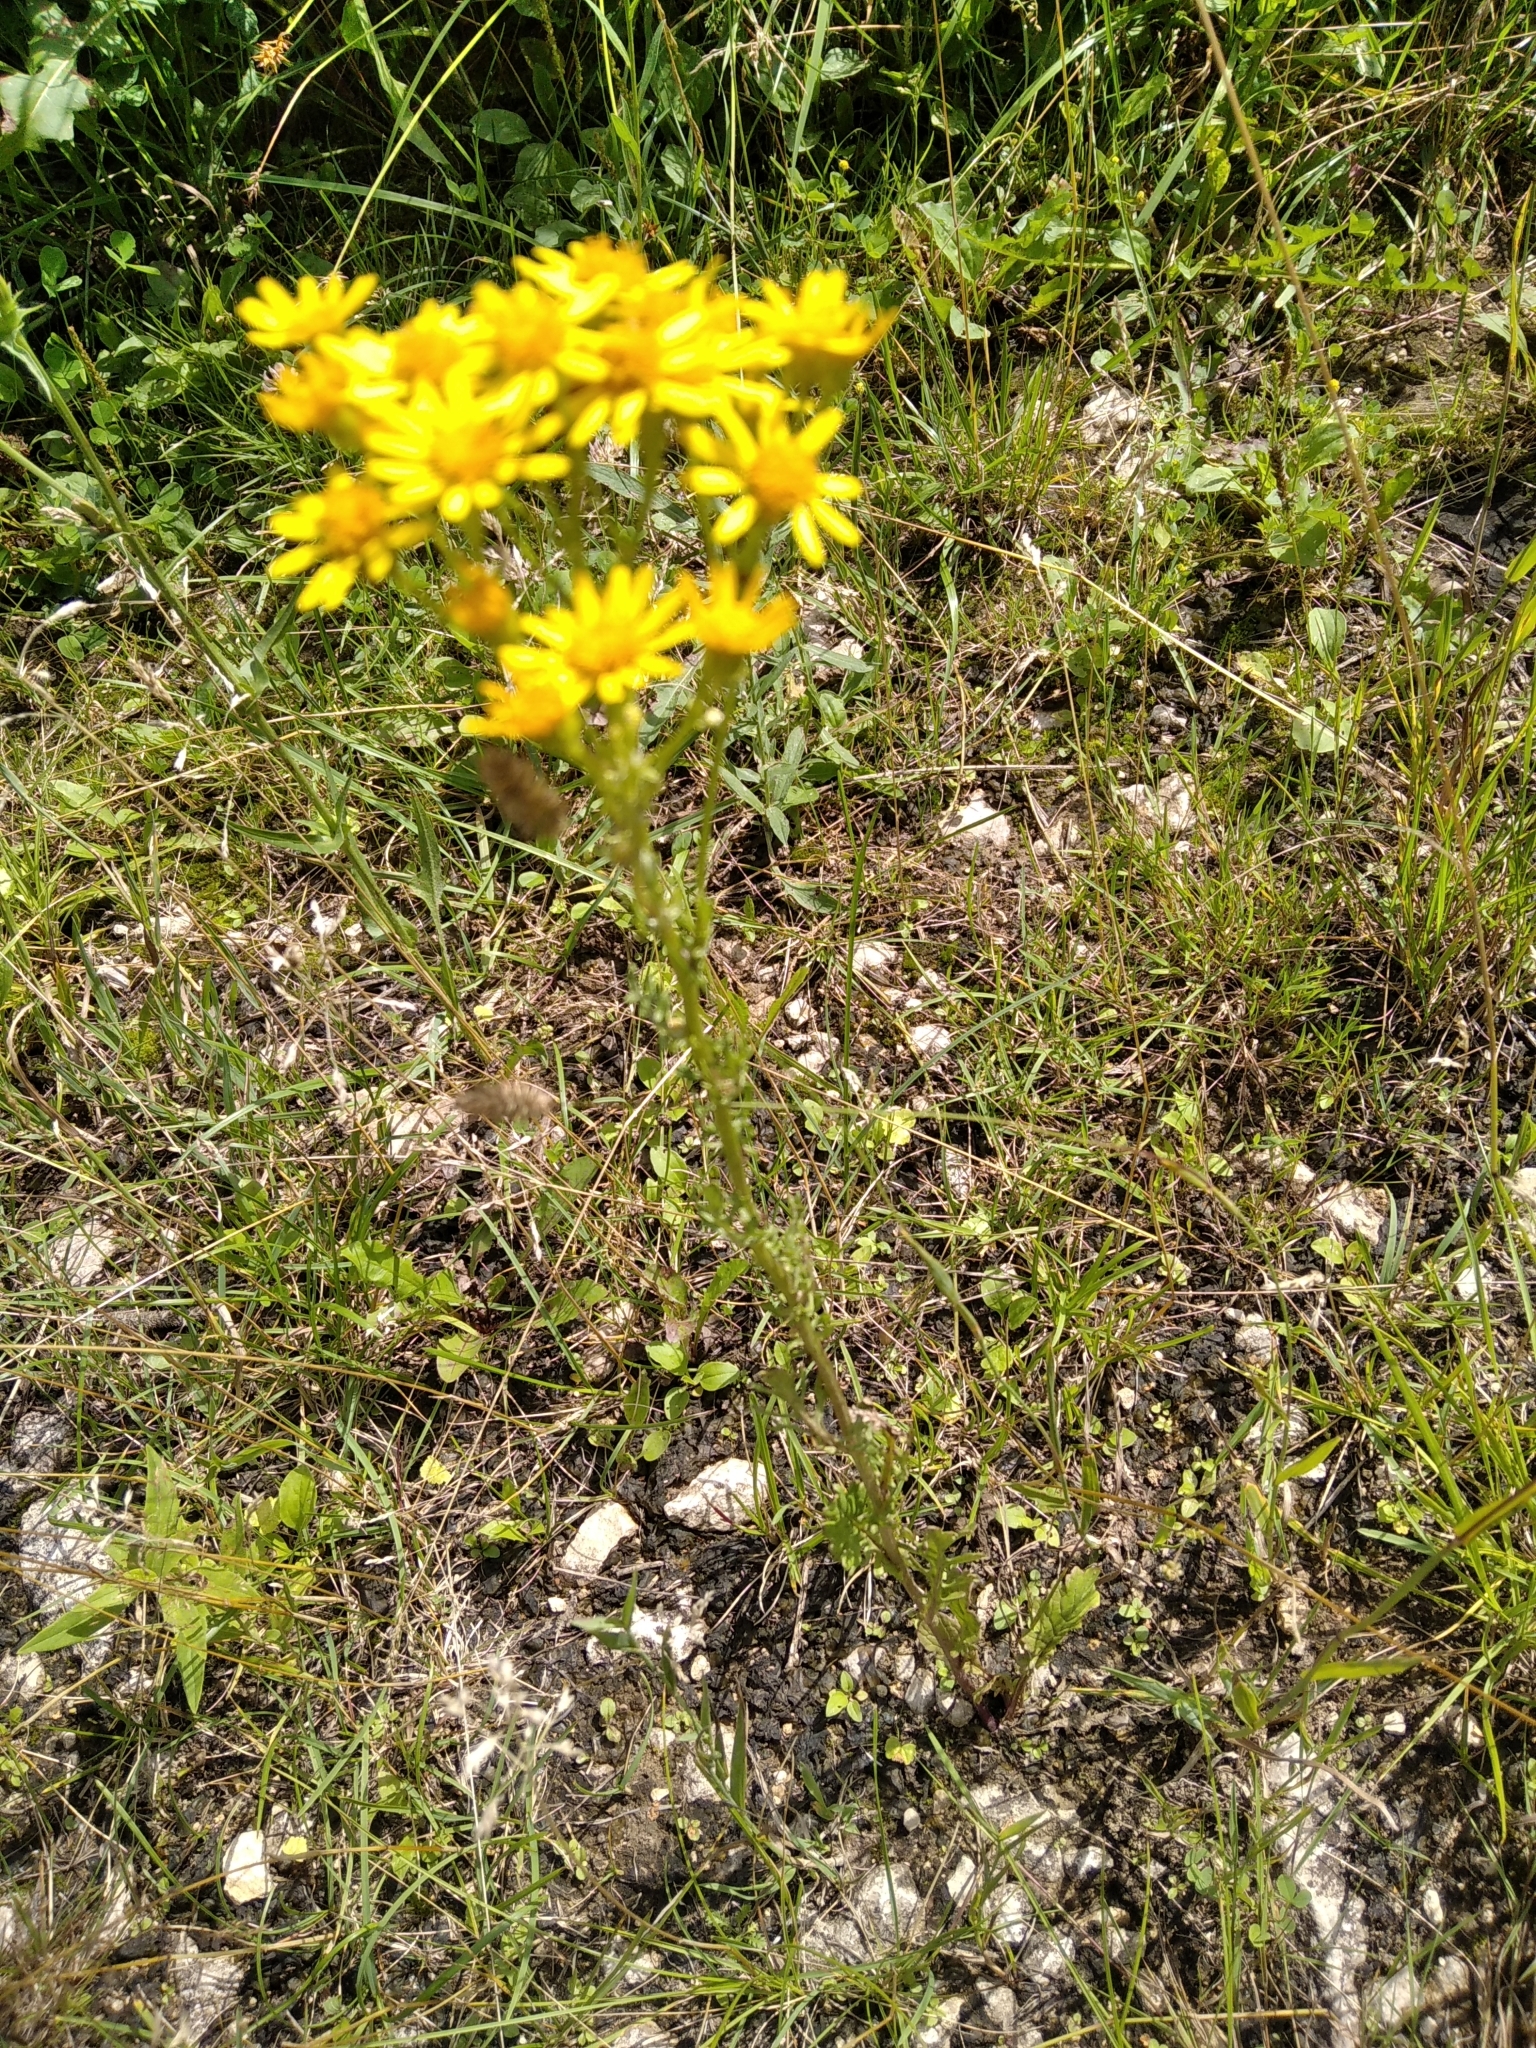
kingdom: Plantae
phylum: Tracheophyta
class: Magnoliopsida
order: Asterales
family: Asteraceae
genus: Jacobaea
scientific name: Jacobaea vulgaris
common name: Stinking willie
